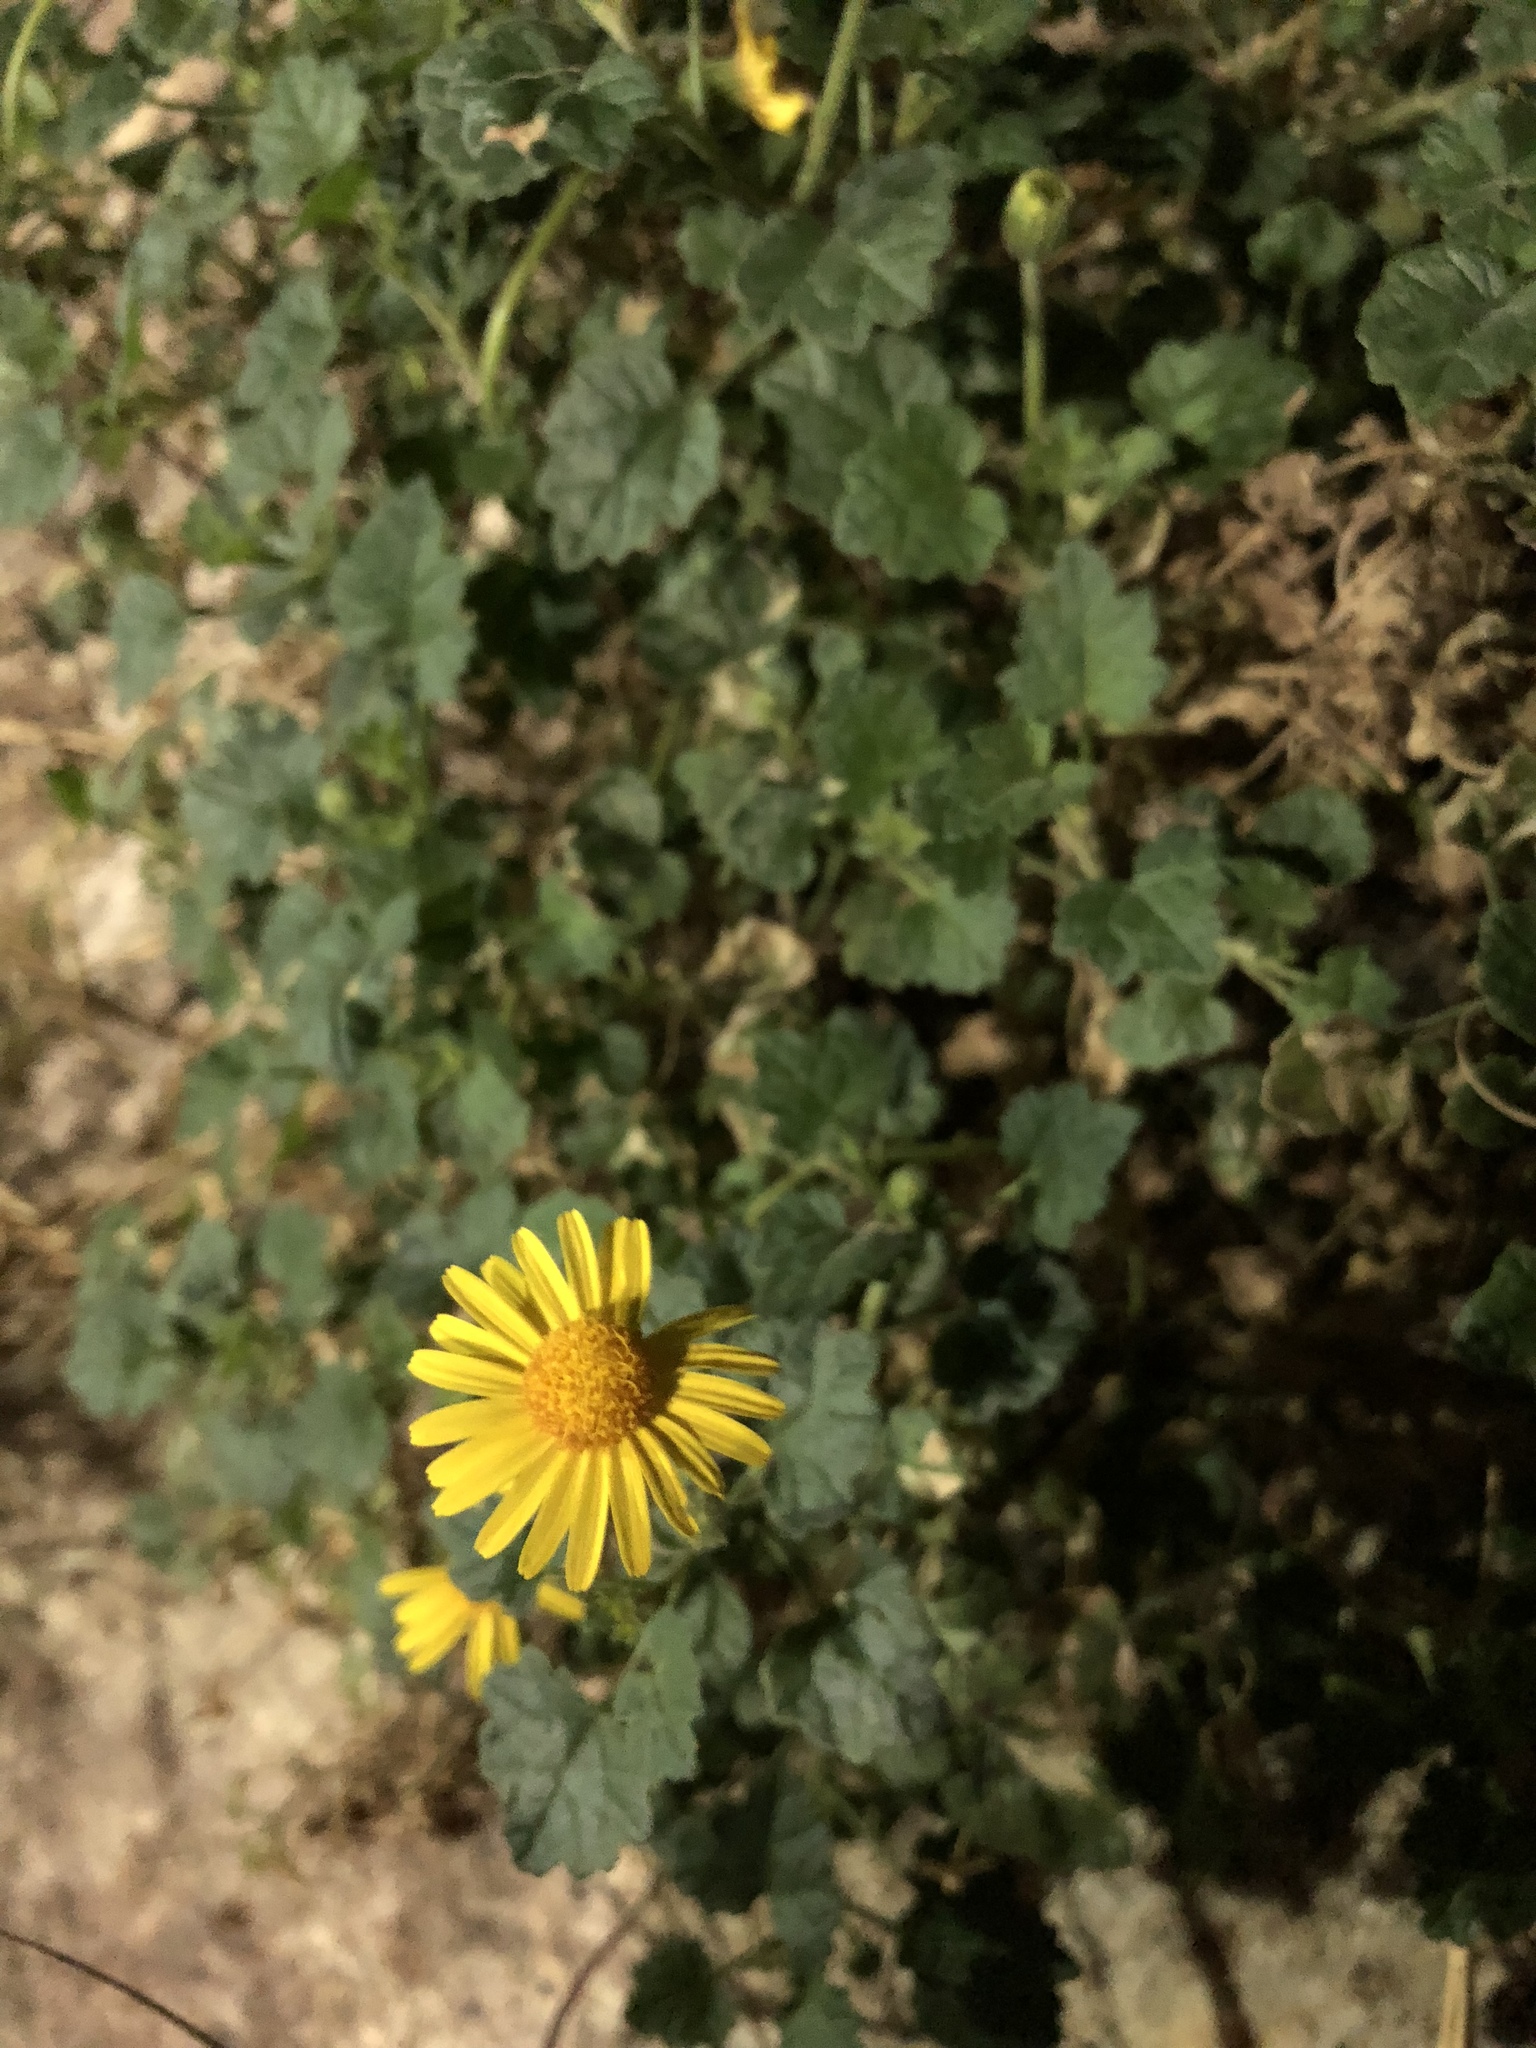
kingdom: Plantae
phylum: Tracheophyta
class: Magnoliopsida
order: Asterales
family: Asteraceae
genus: Laphamia
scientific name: Laphamia leptoglossa
